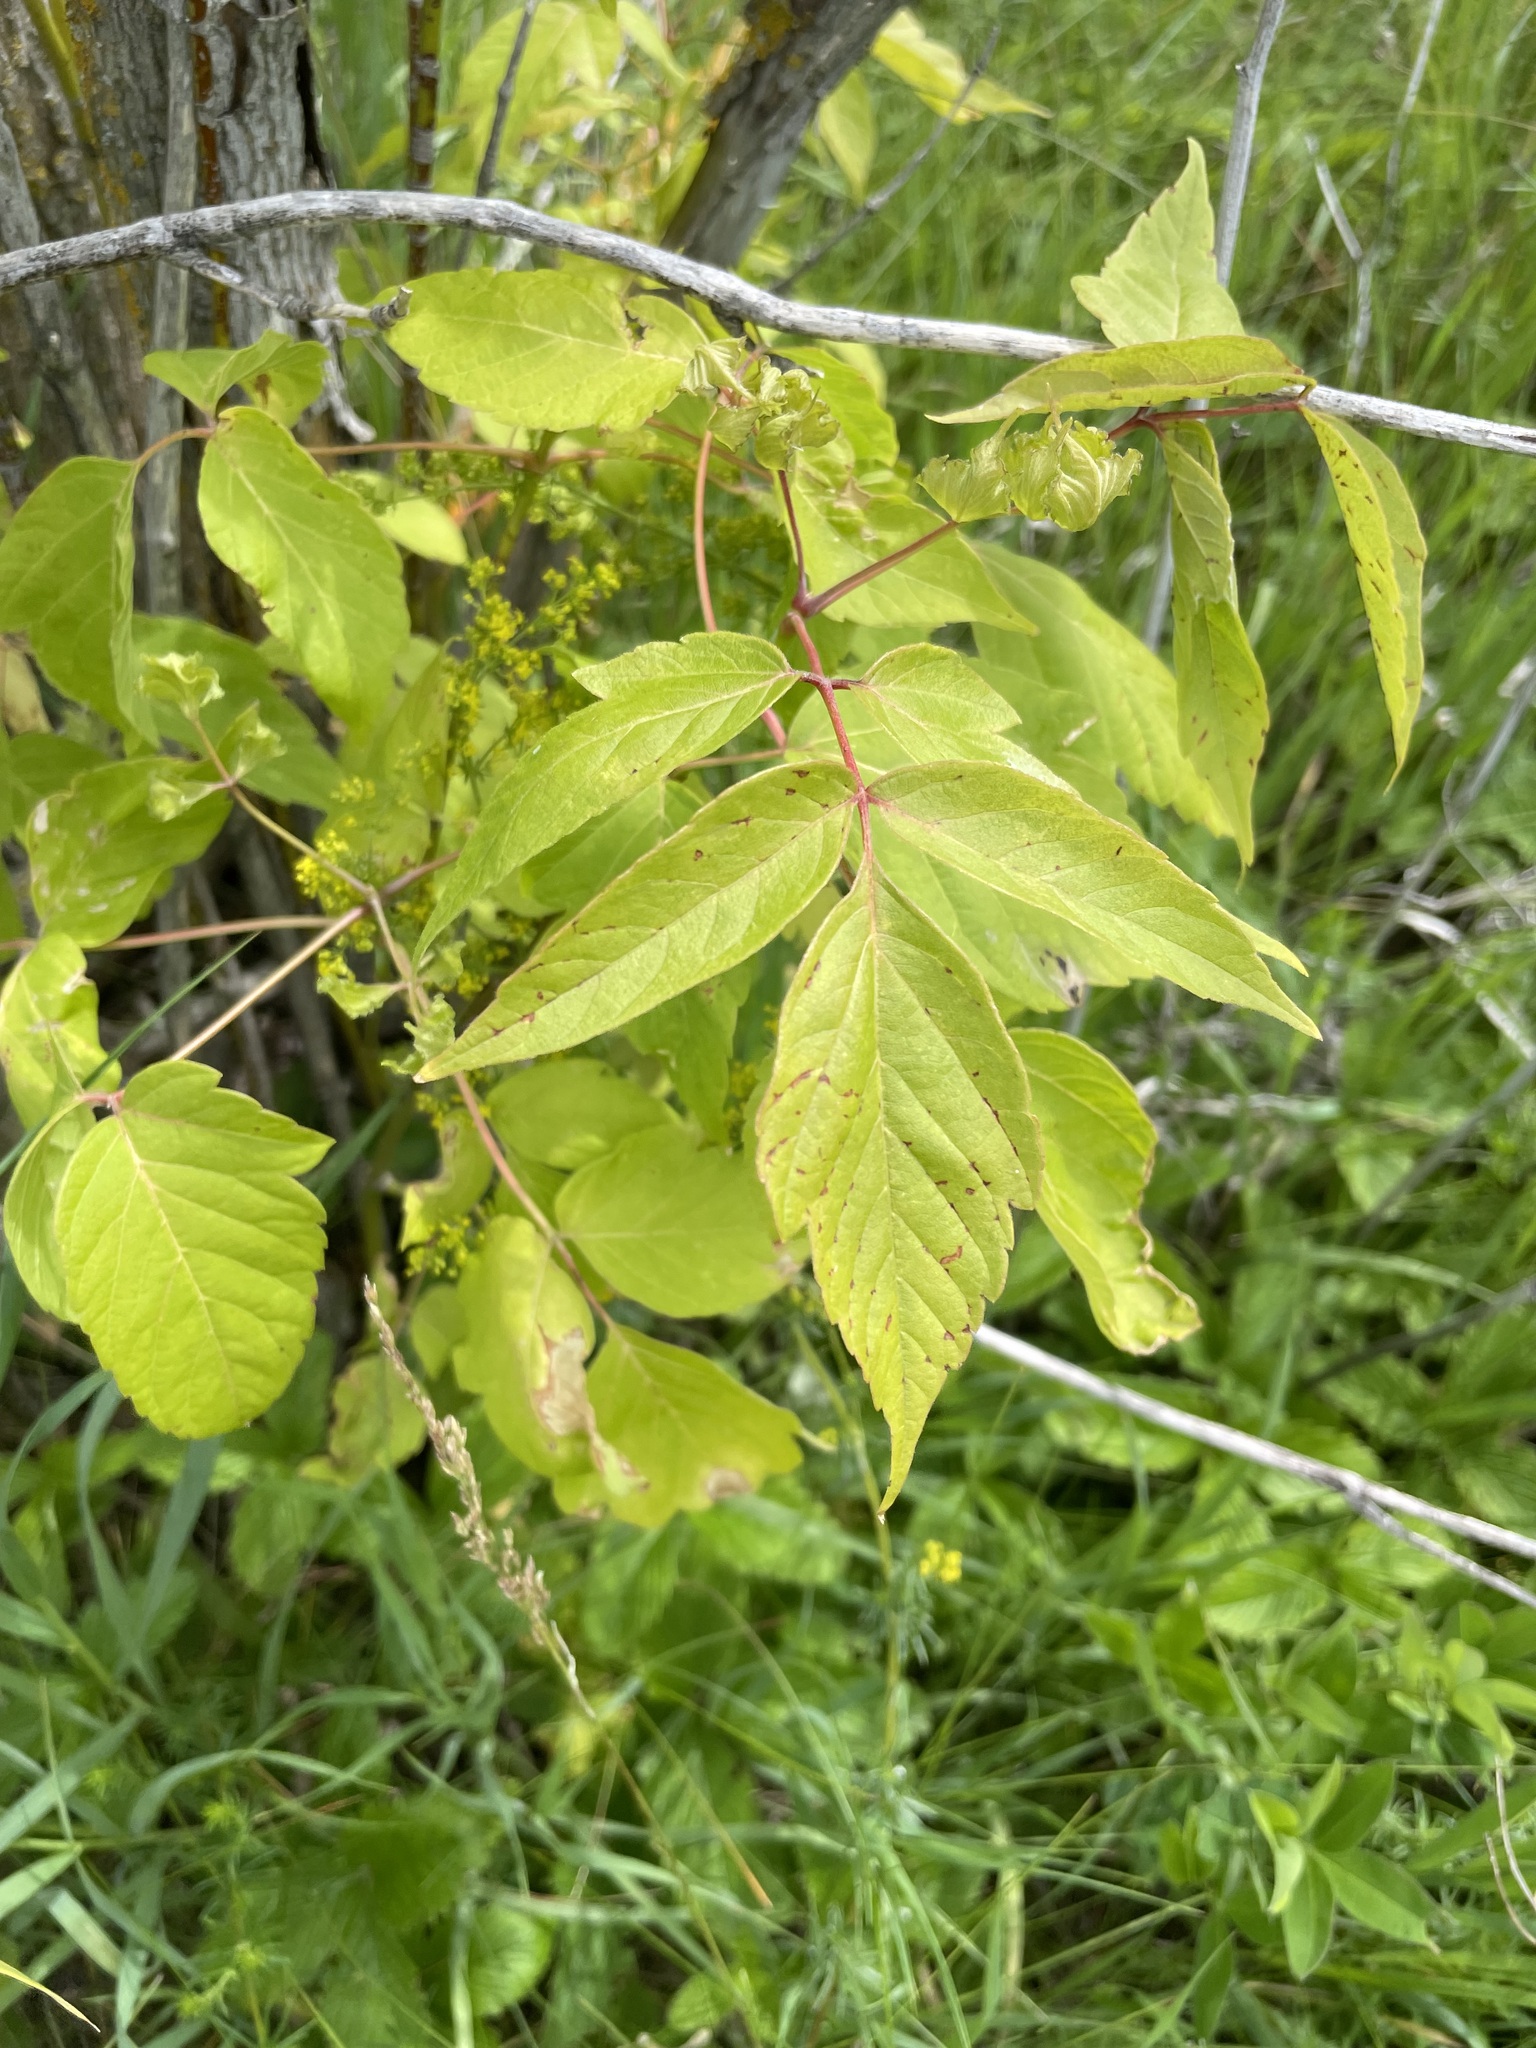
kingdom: Plantae
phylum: Tracheophyta
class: Magnoliopsida
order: Sapindales
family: Sapindaceae
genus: Acer
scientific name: Acer negundo
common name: Ashleaf maple
